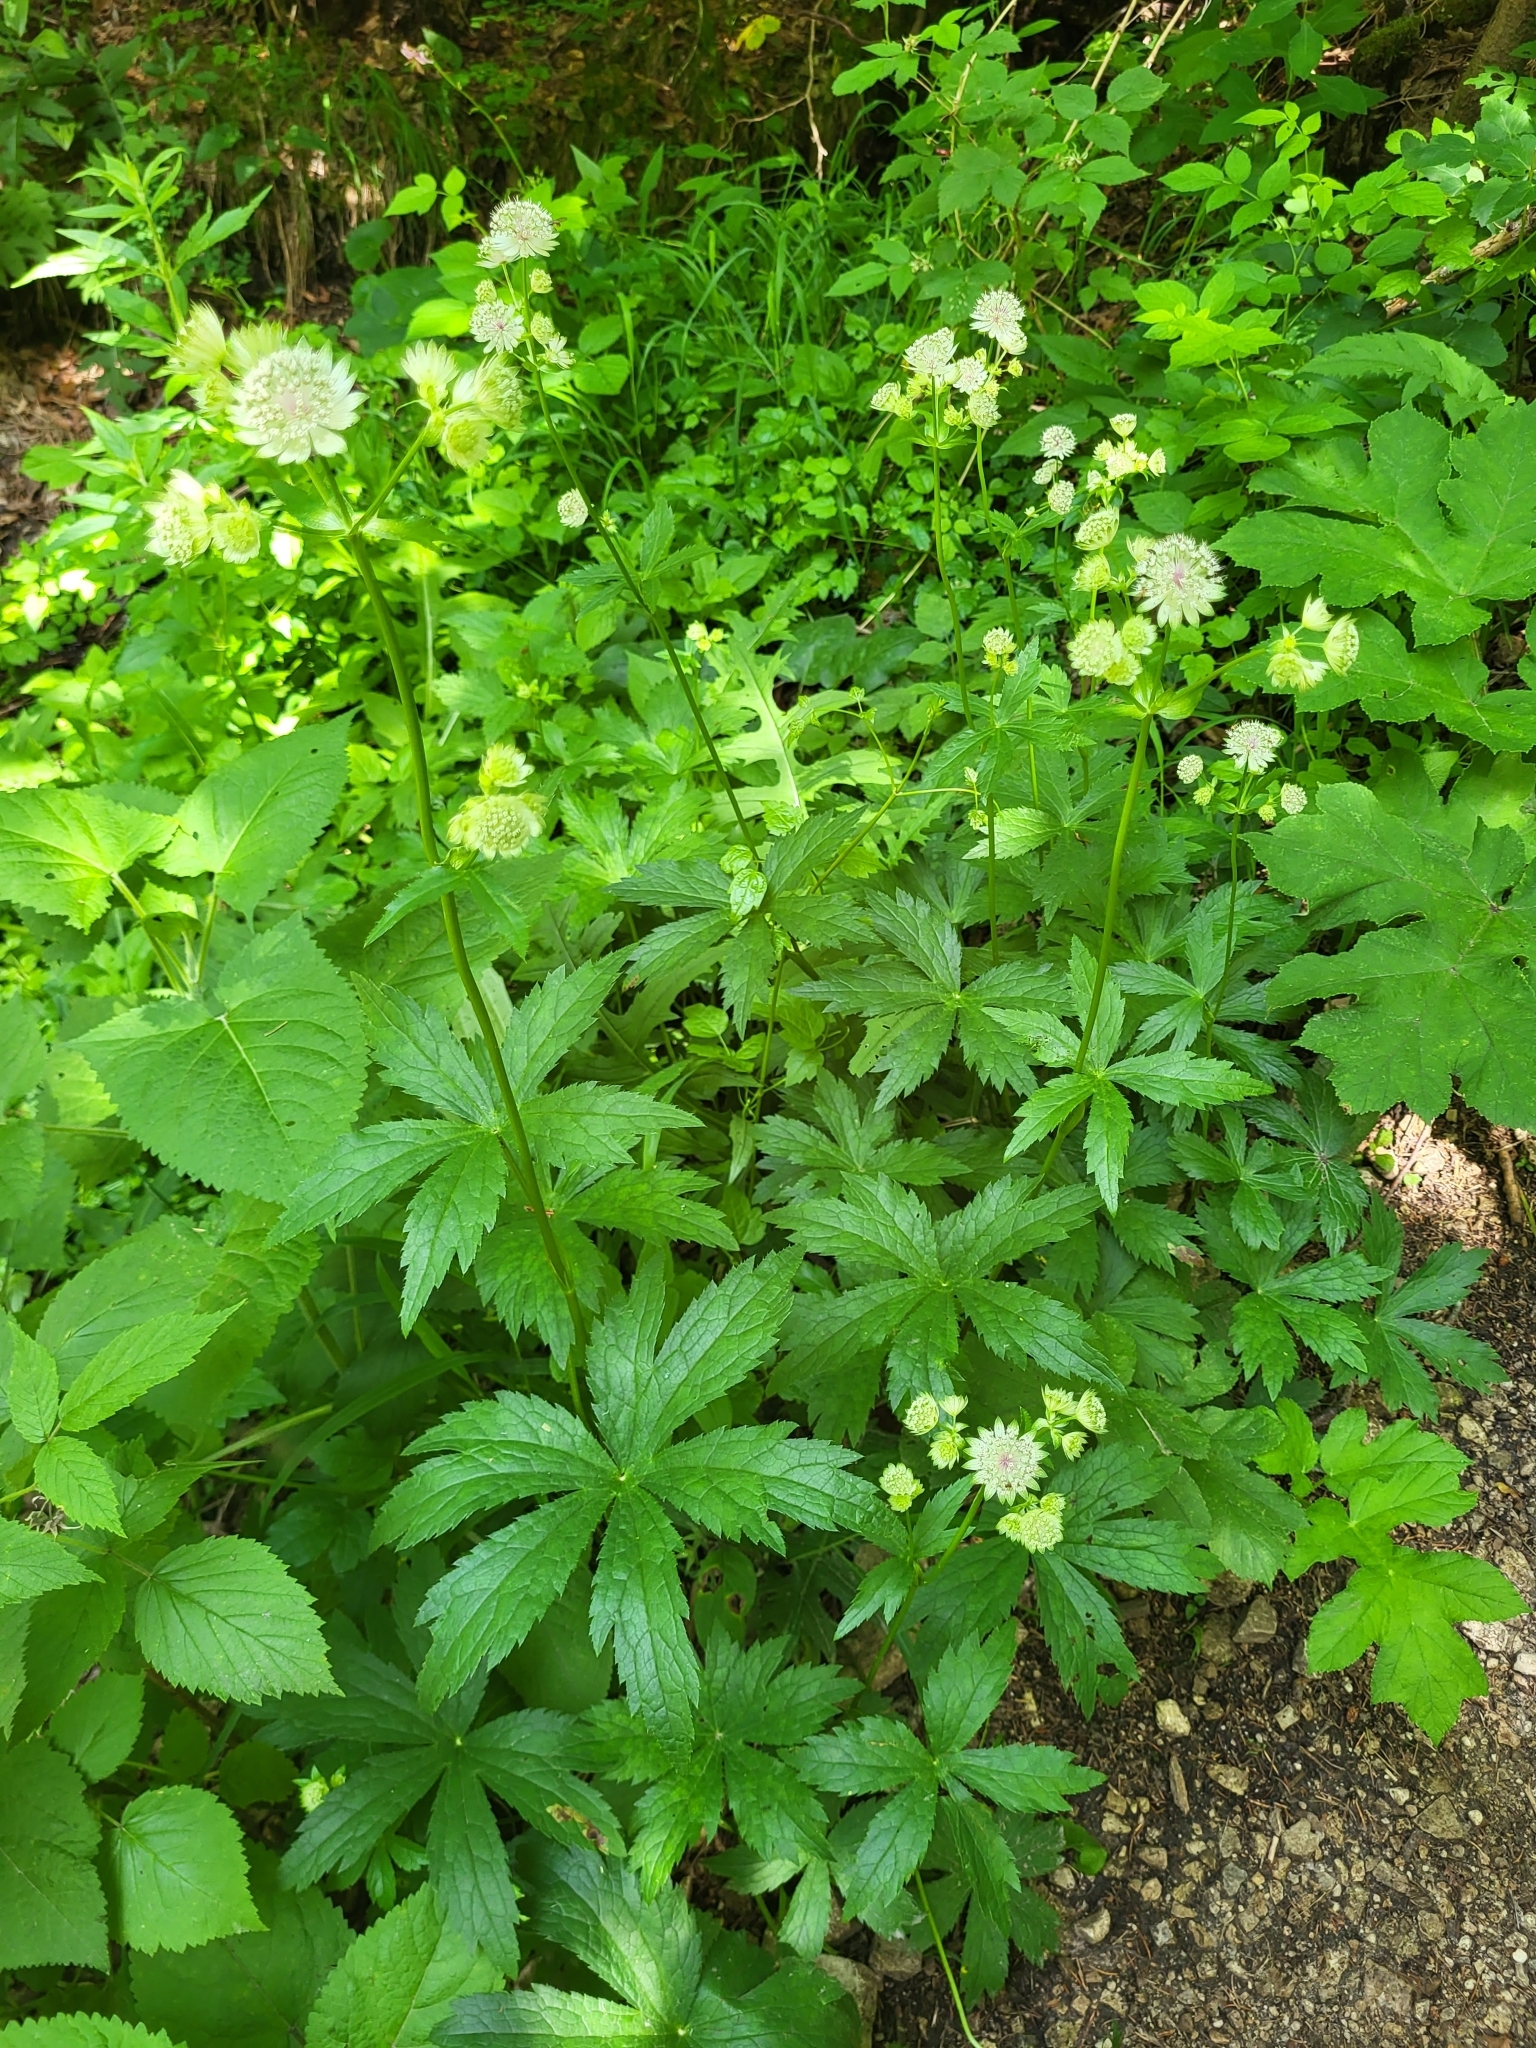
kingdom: Plantae
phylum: Tracheophyta
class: Magnoliopsida
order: Apiales
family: Apiaceae
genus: Astrantia
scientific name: Astrantia major
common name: Greater masterwort
